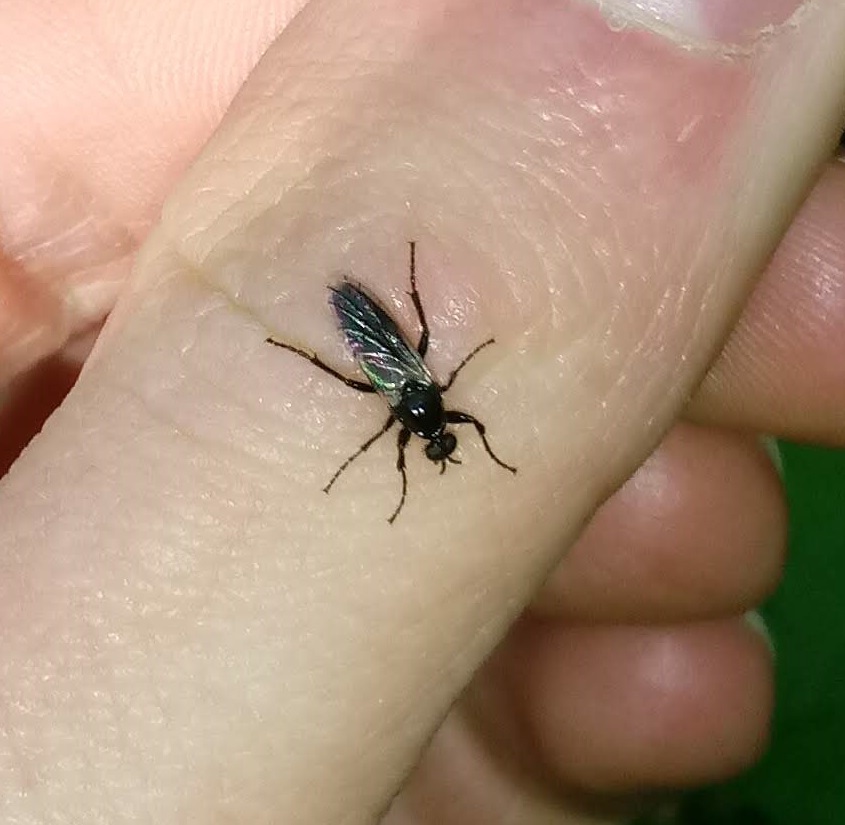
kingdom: Animalia
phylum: Arthropoda
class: Insecta
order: Diptera
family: Bibionidae
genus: Bibio
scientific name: Bibio albipennis
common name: White-winged march fly
